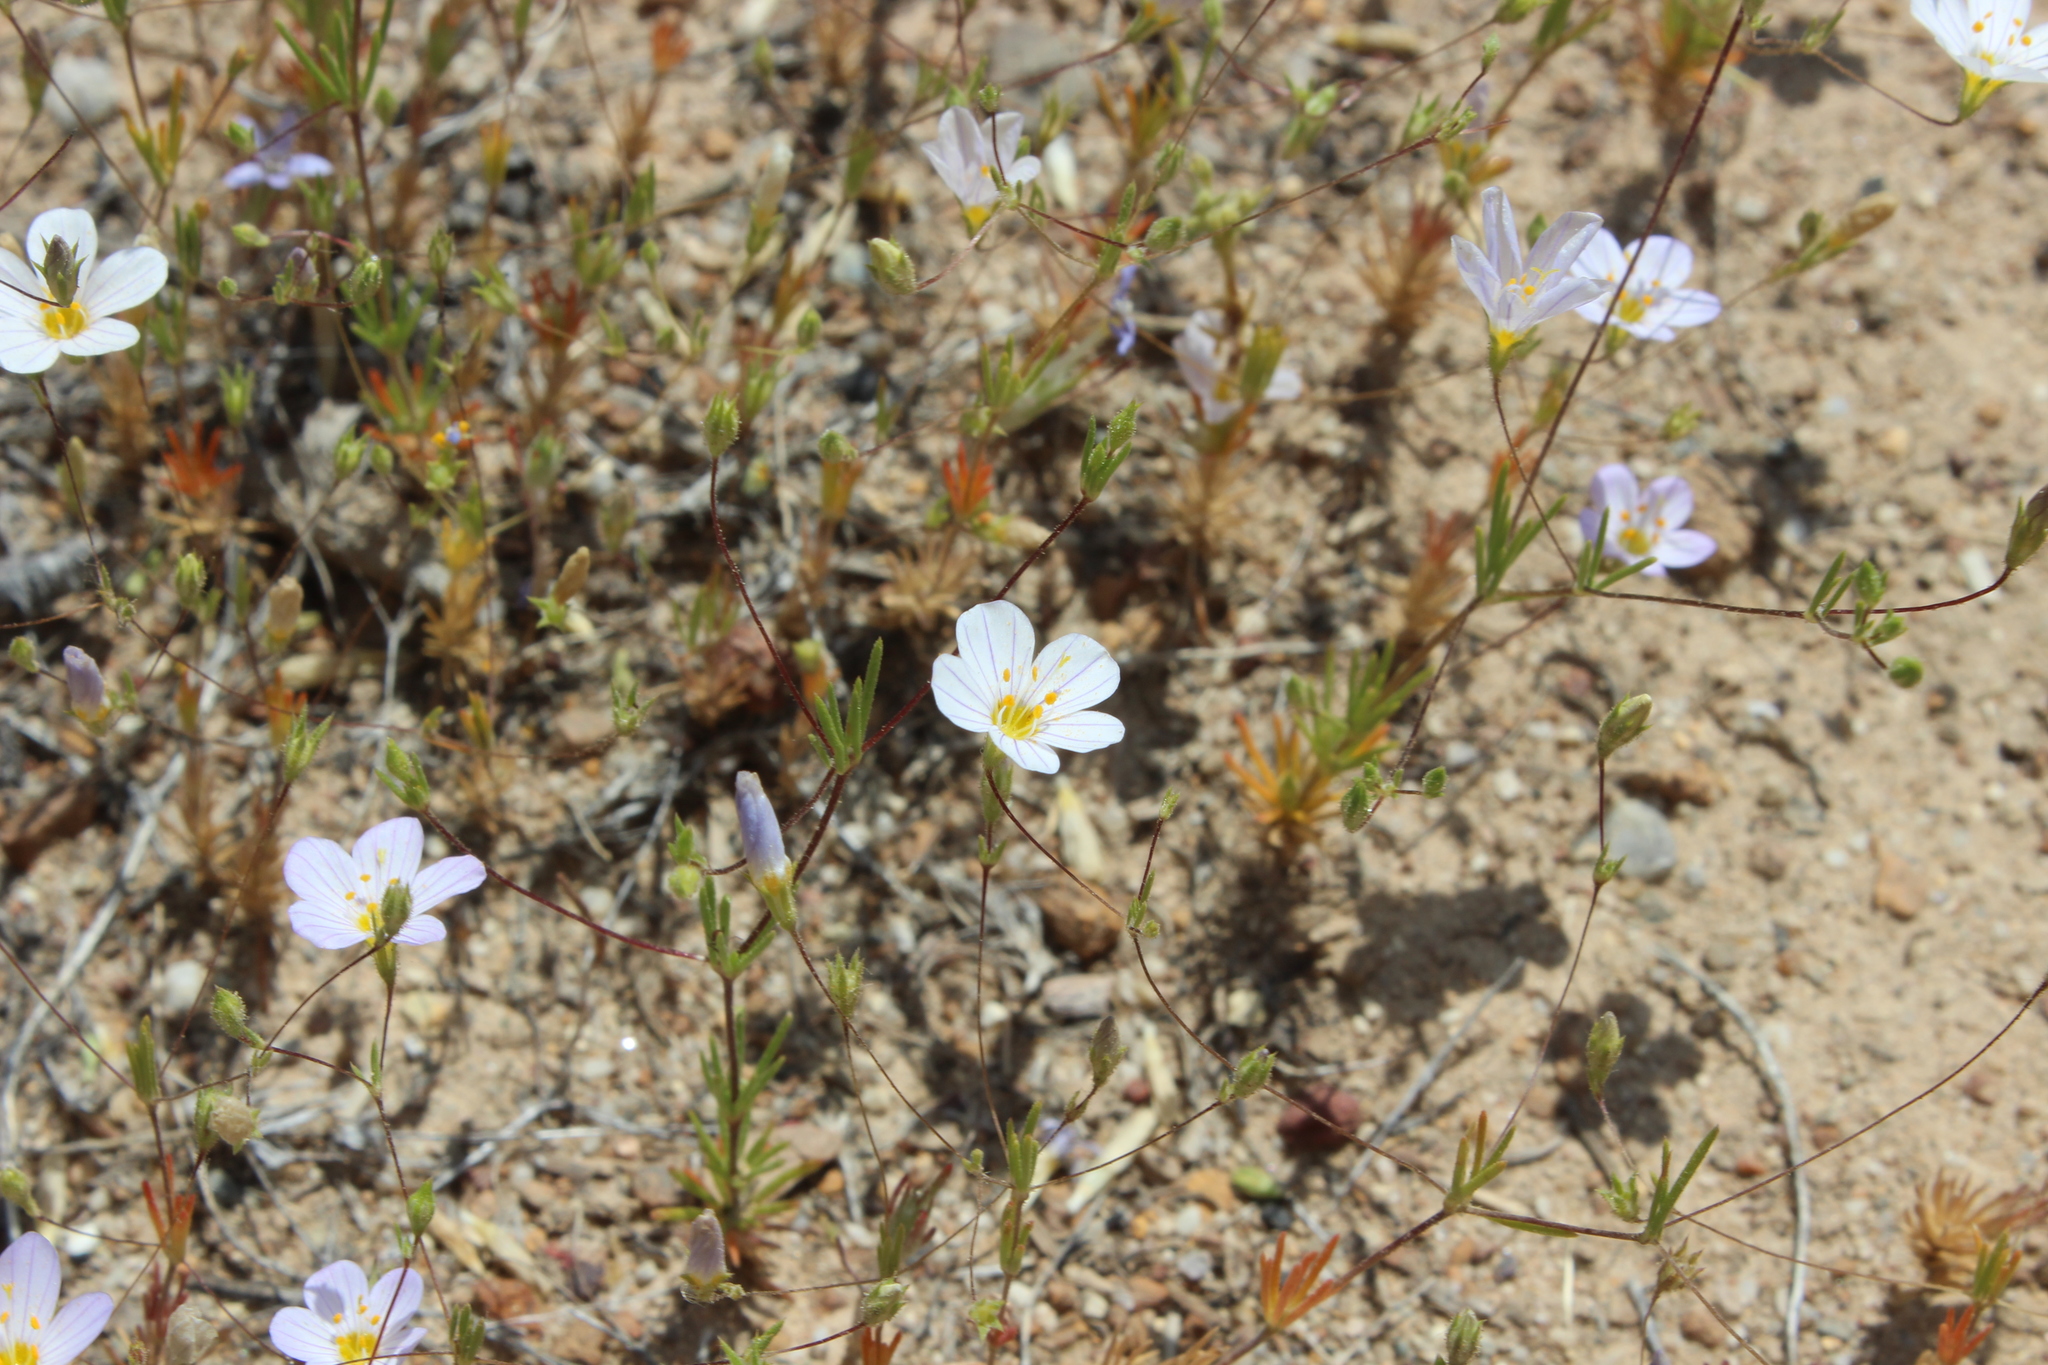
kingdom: Plantae
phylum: Tracheophyta
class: Magnoliopsida
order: Ericales
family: Polemoniaceae
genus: Leptosiphon
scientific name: Leptosiphon liniflorus
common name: Narrowflower flaxflower
